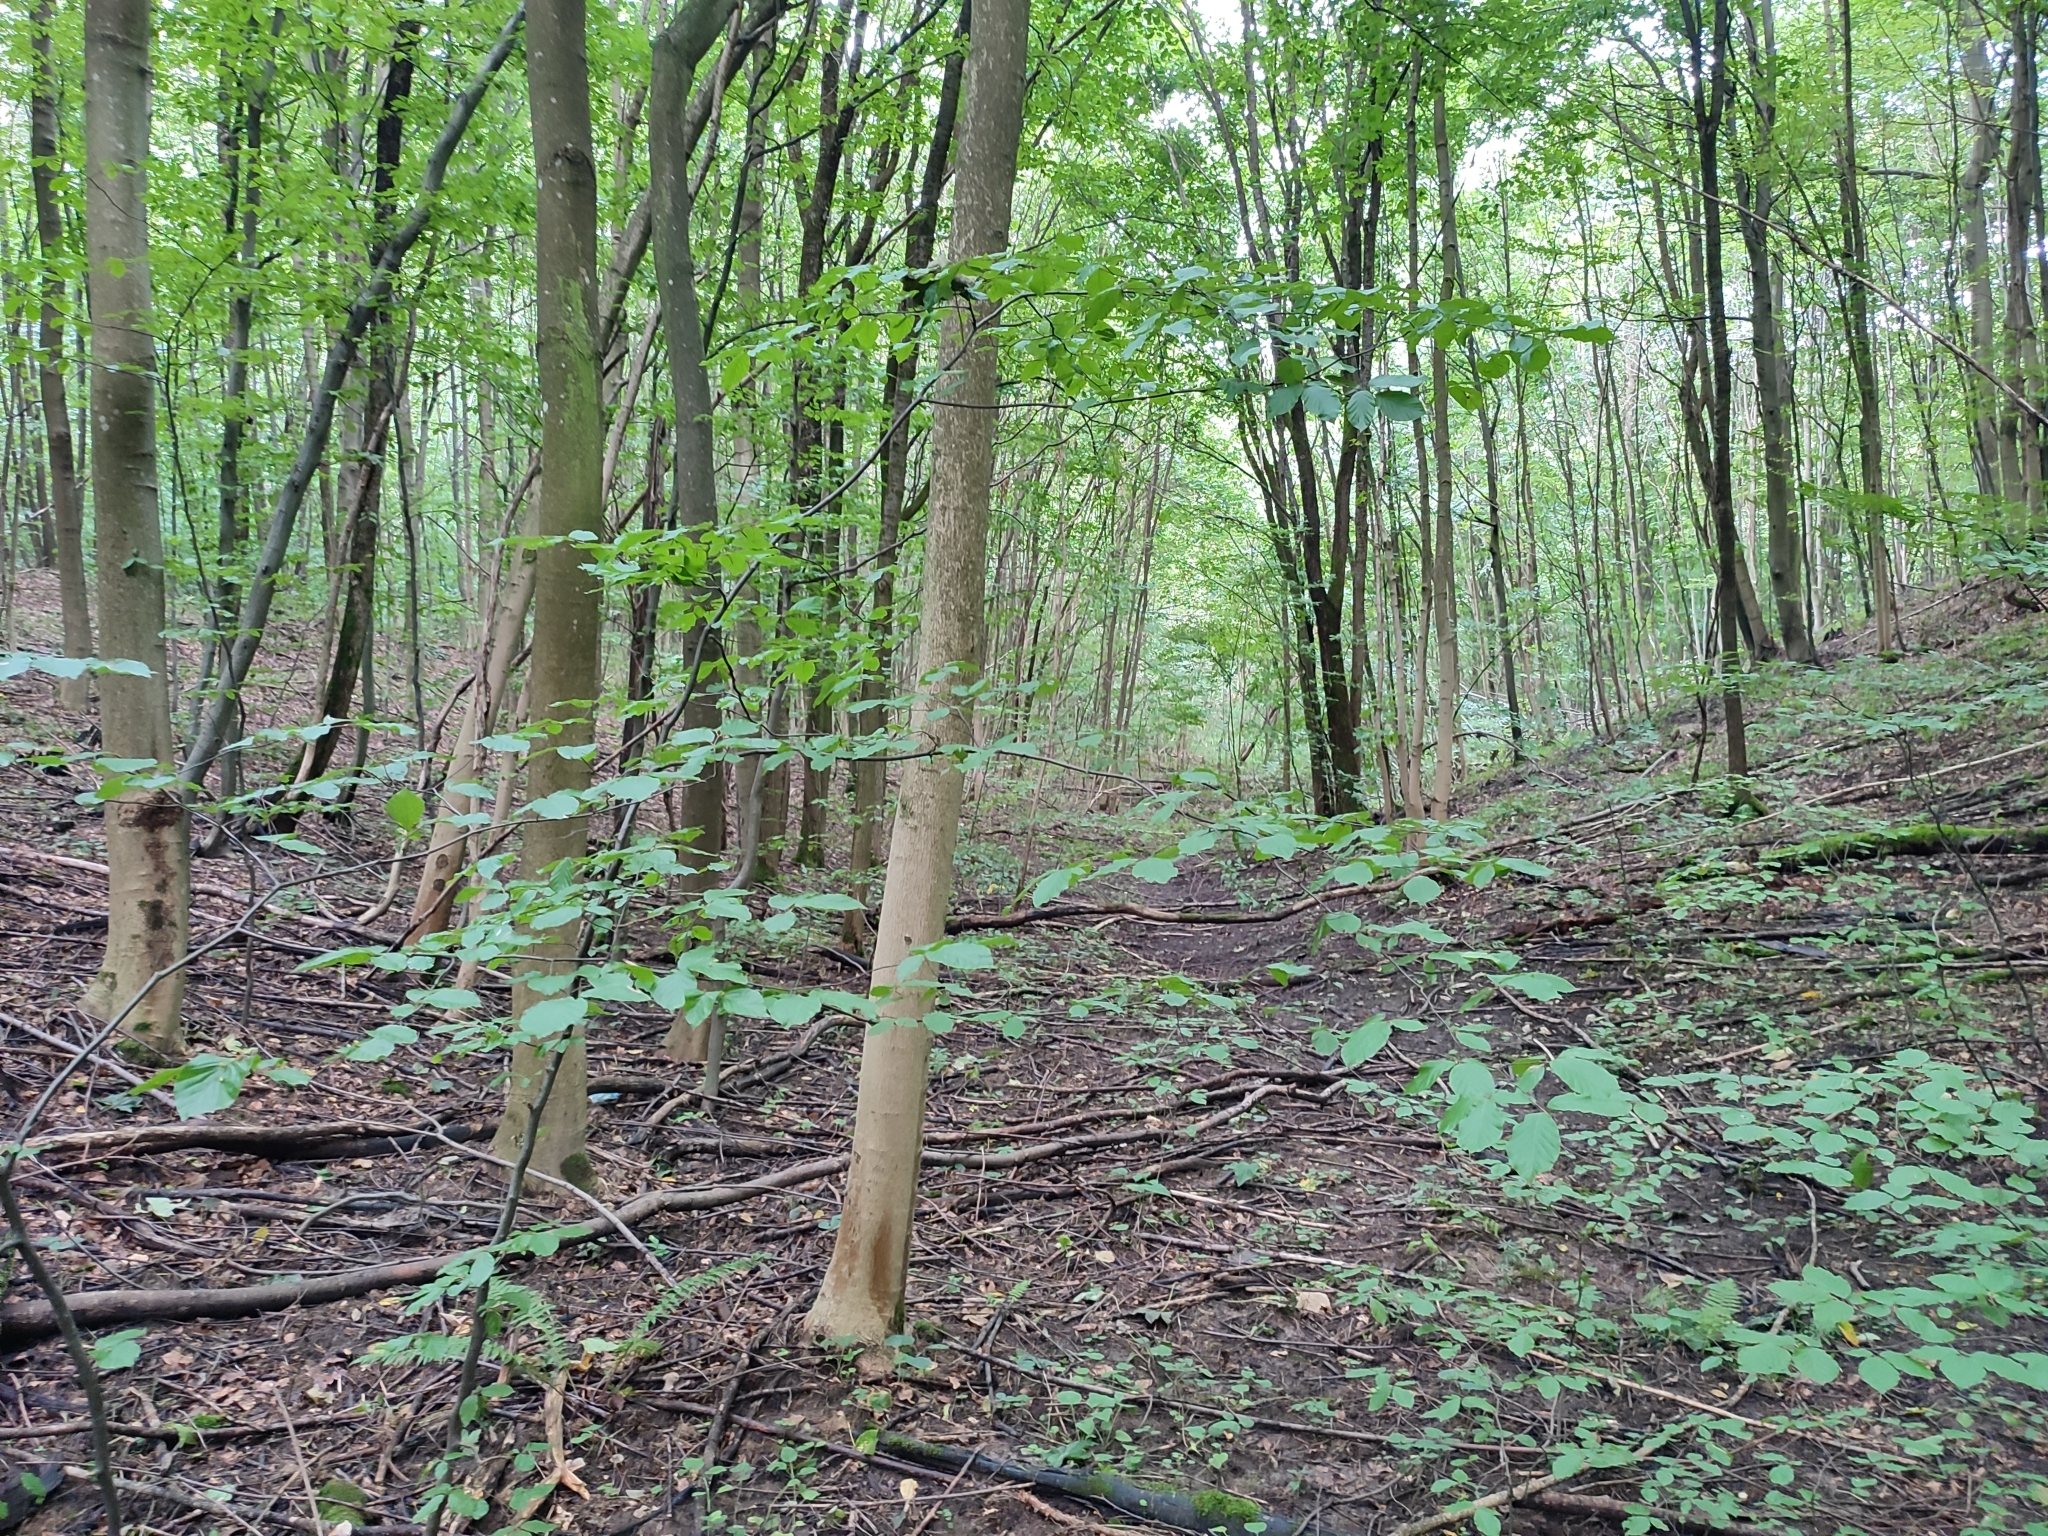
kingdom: Plantae
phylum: Tracheophyta
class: Magnoliopsida
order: Fagales
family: Fagaceae
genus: Fagus
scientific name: Fagus sylvatica
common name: Beech
